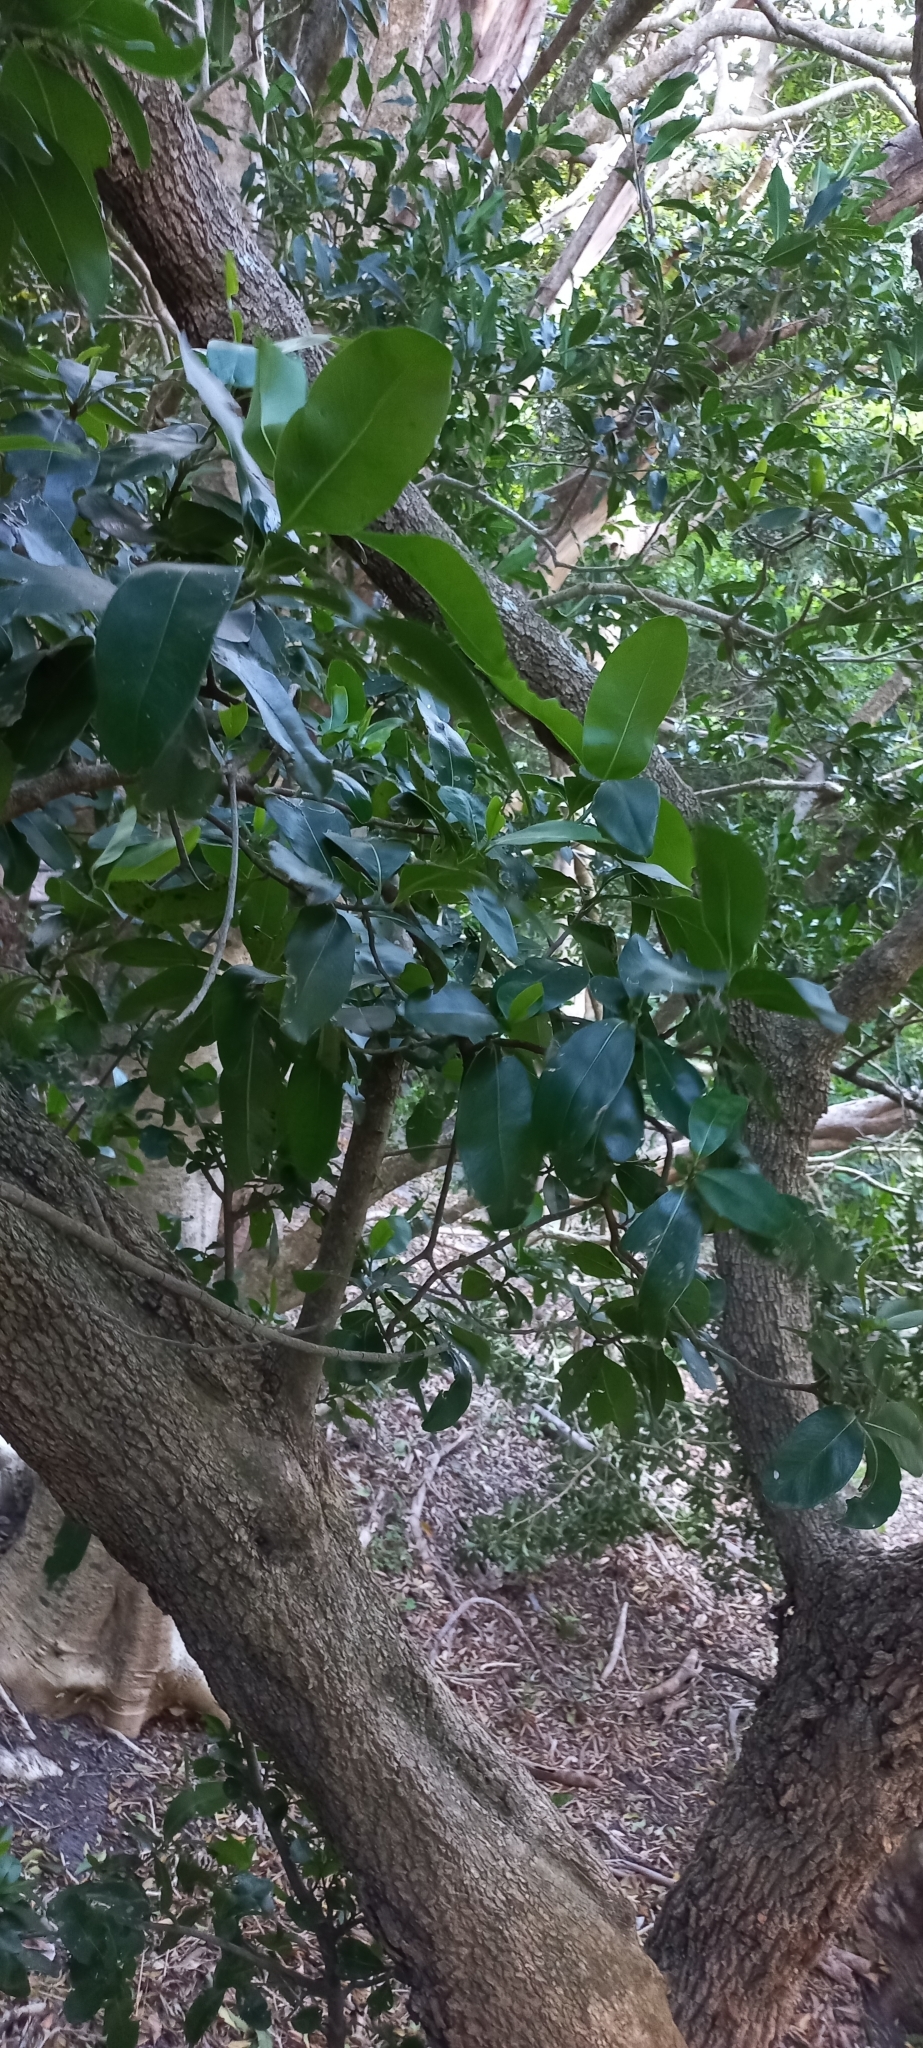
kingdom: Plantae
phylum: Tracheophyta
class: Magnoliopsida
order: Ericales
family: Sapotaceae
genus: Sideroxylon
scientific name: Sideroxylon inerme
